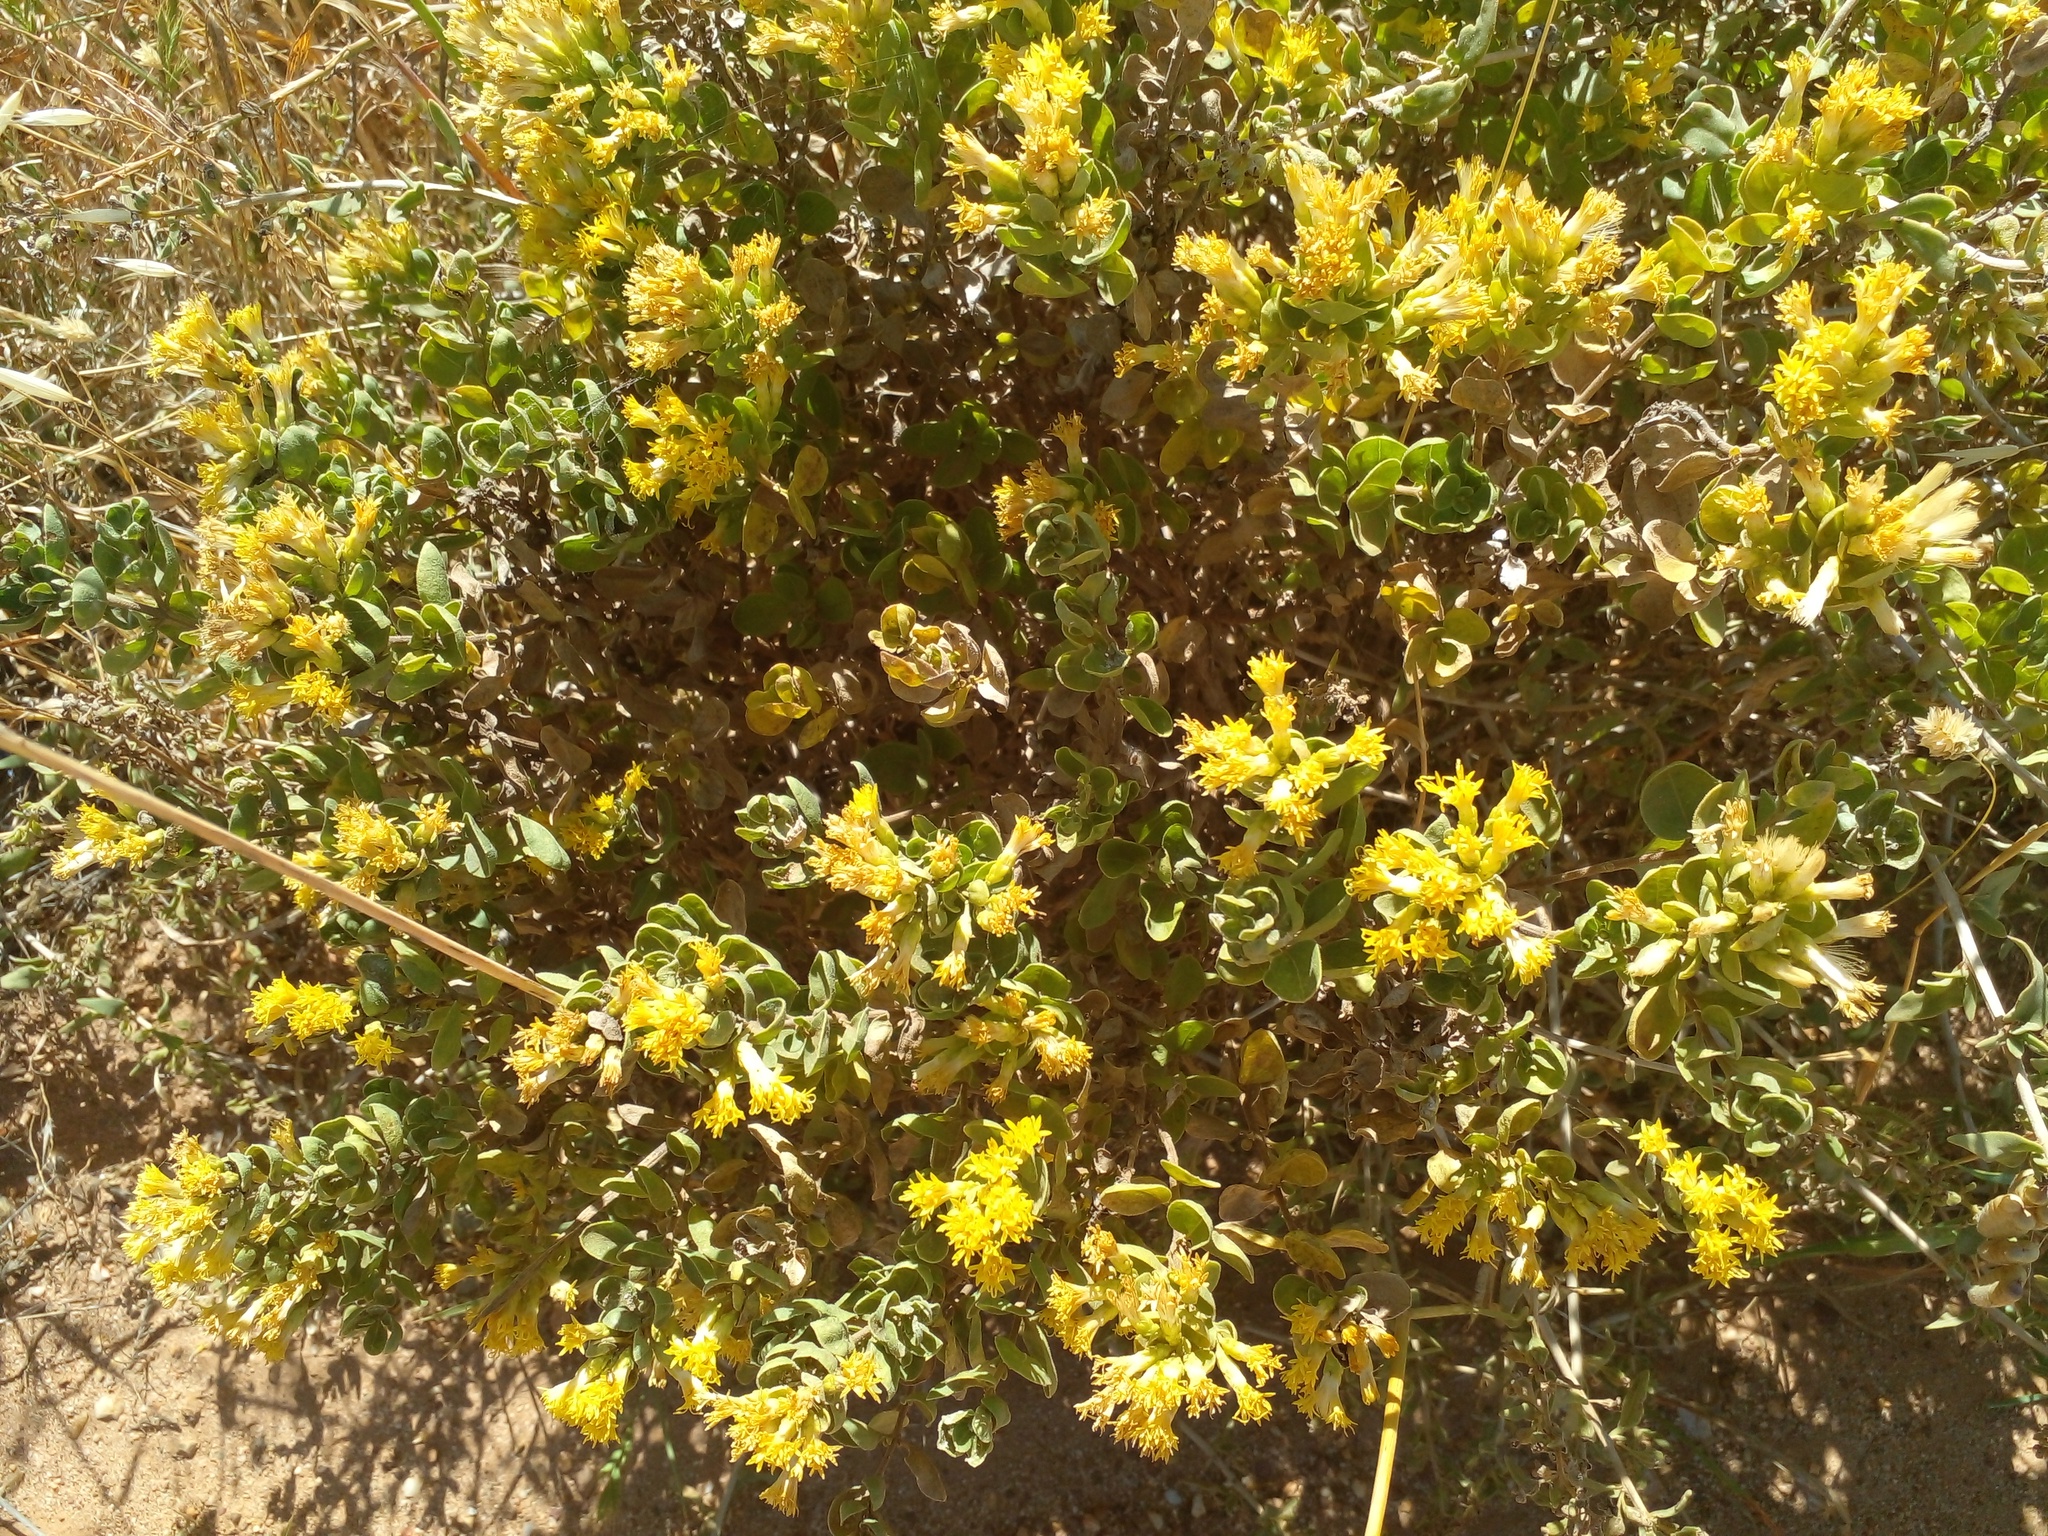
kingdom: Plantae
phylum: Tracheophyta
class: Magnoliopsida
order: Asterales
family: Asteraceae
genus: Pteronia
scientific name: Pteronia divaricata
